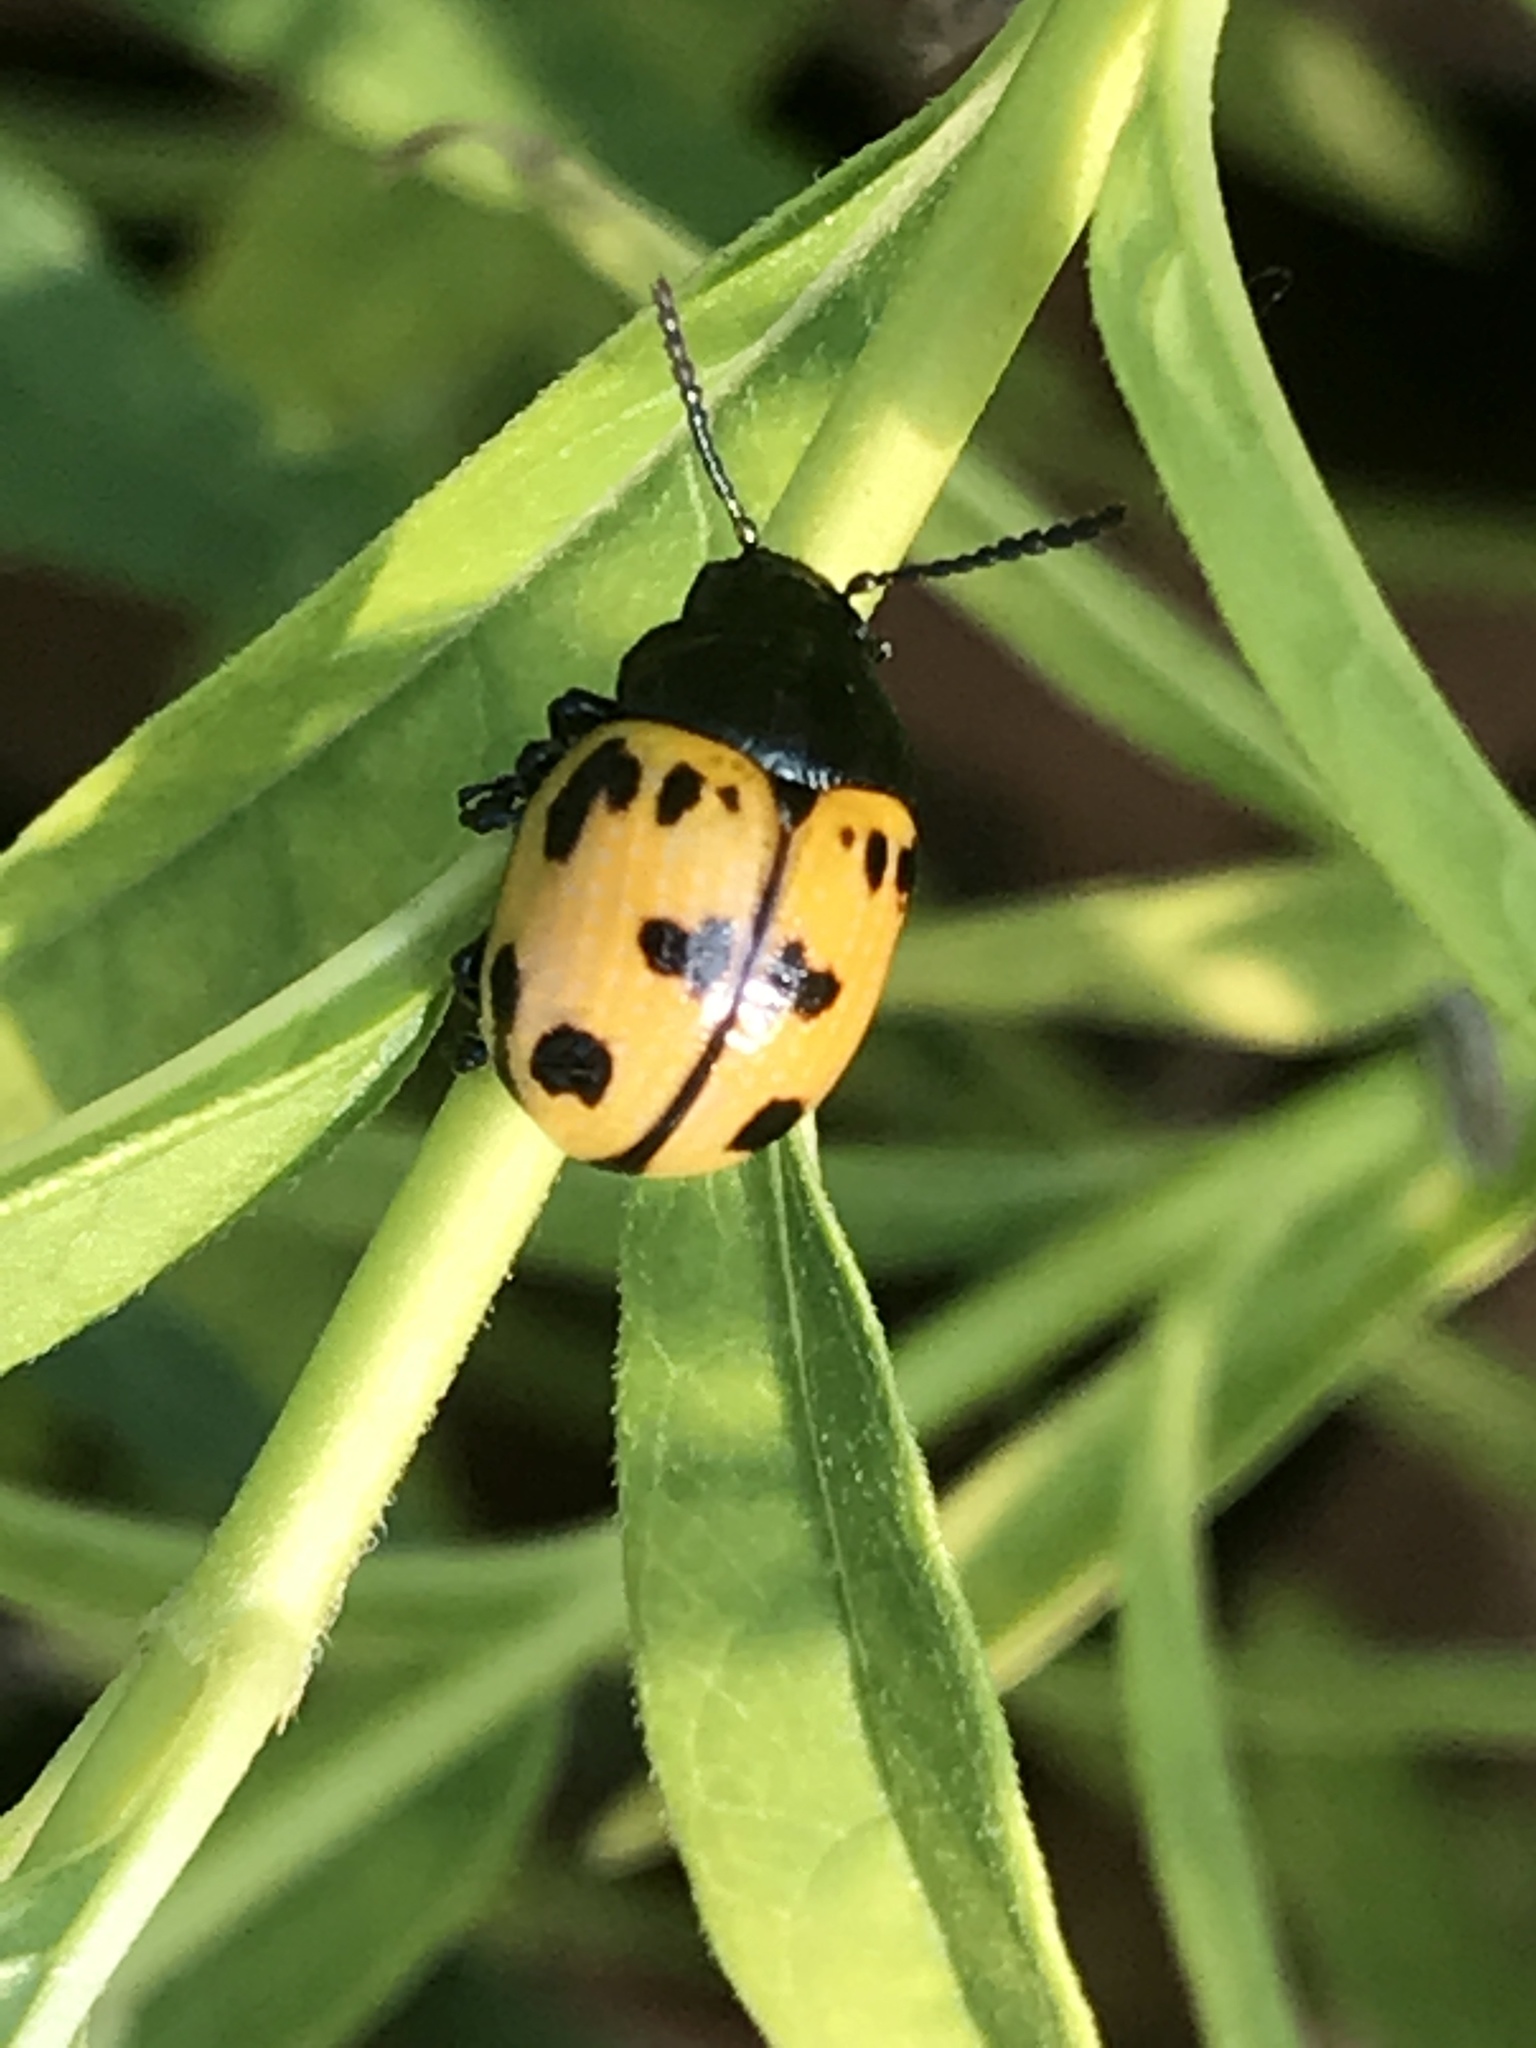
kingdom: Animalia
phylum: Arthropoda
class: Insecta
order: Coleoptera
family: Chrysomelidae
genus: Labidomera
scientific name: Labidomera clivicollis
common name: Swamp milkweed leaf beetle
